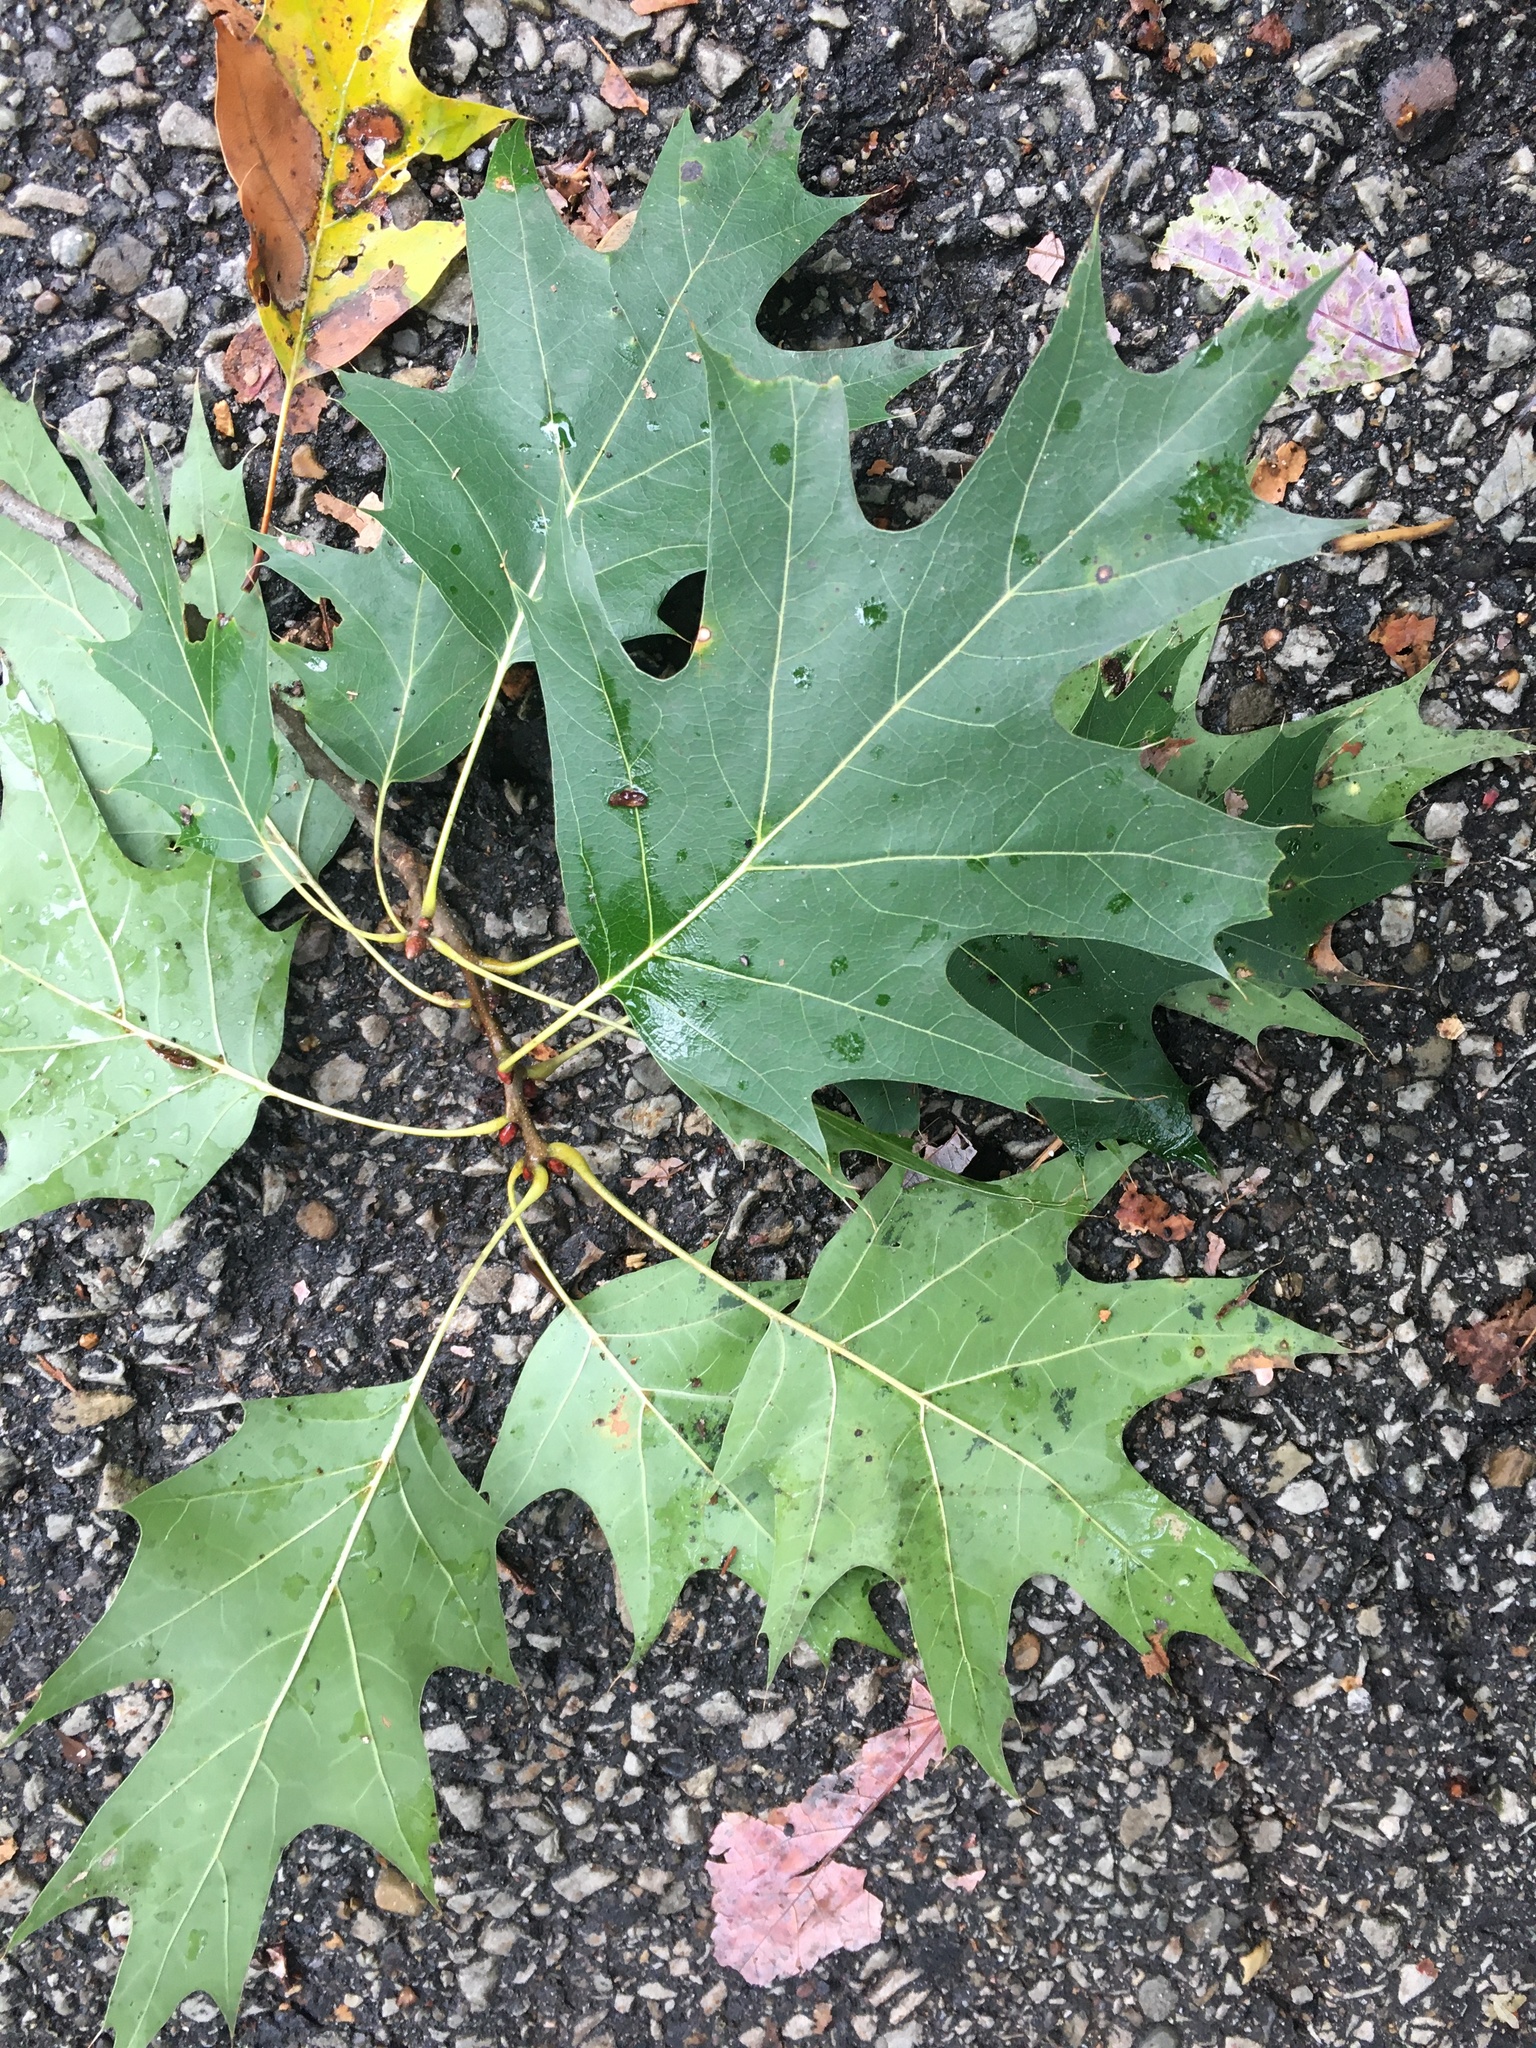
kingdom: Plantae
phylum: Tracheophyta
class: Magnoliopsida
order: Fagales
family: Fagaceae
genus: Quercus
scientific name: Quercus rubra
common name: Red oak
